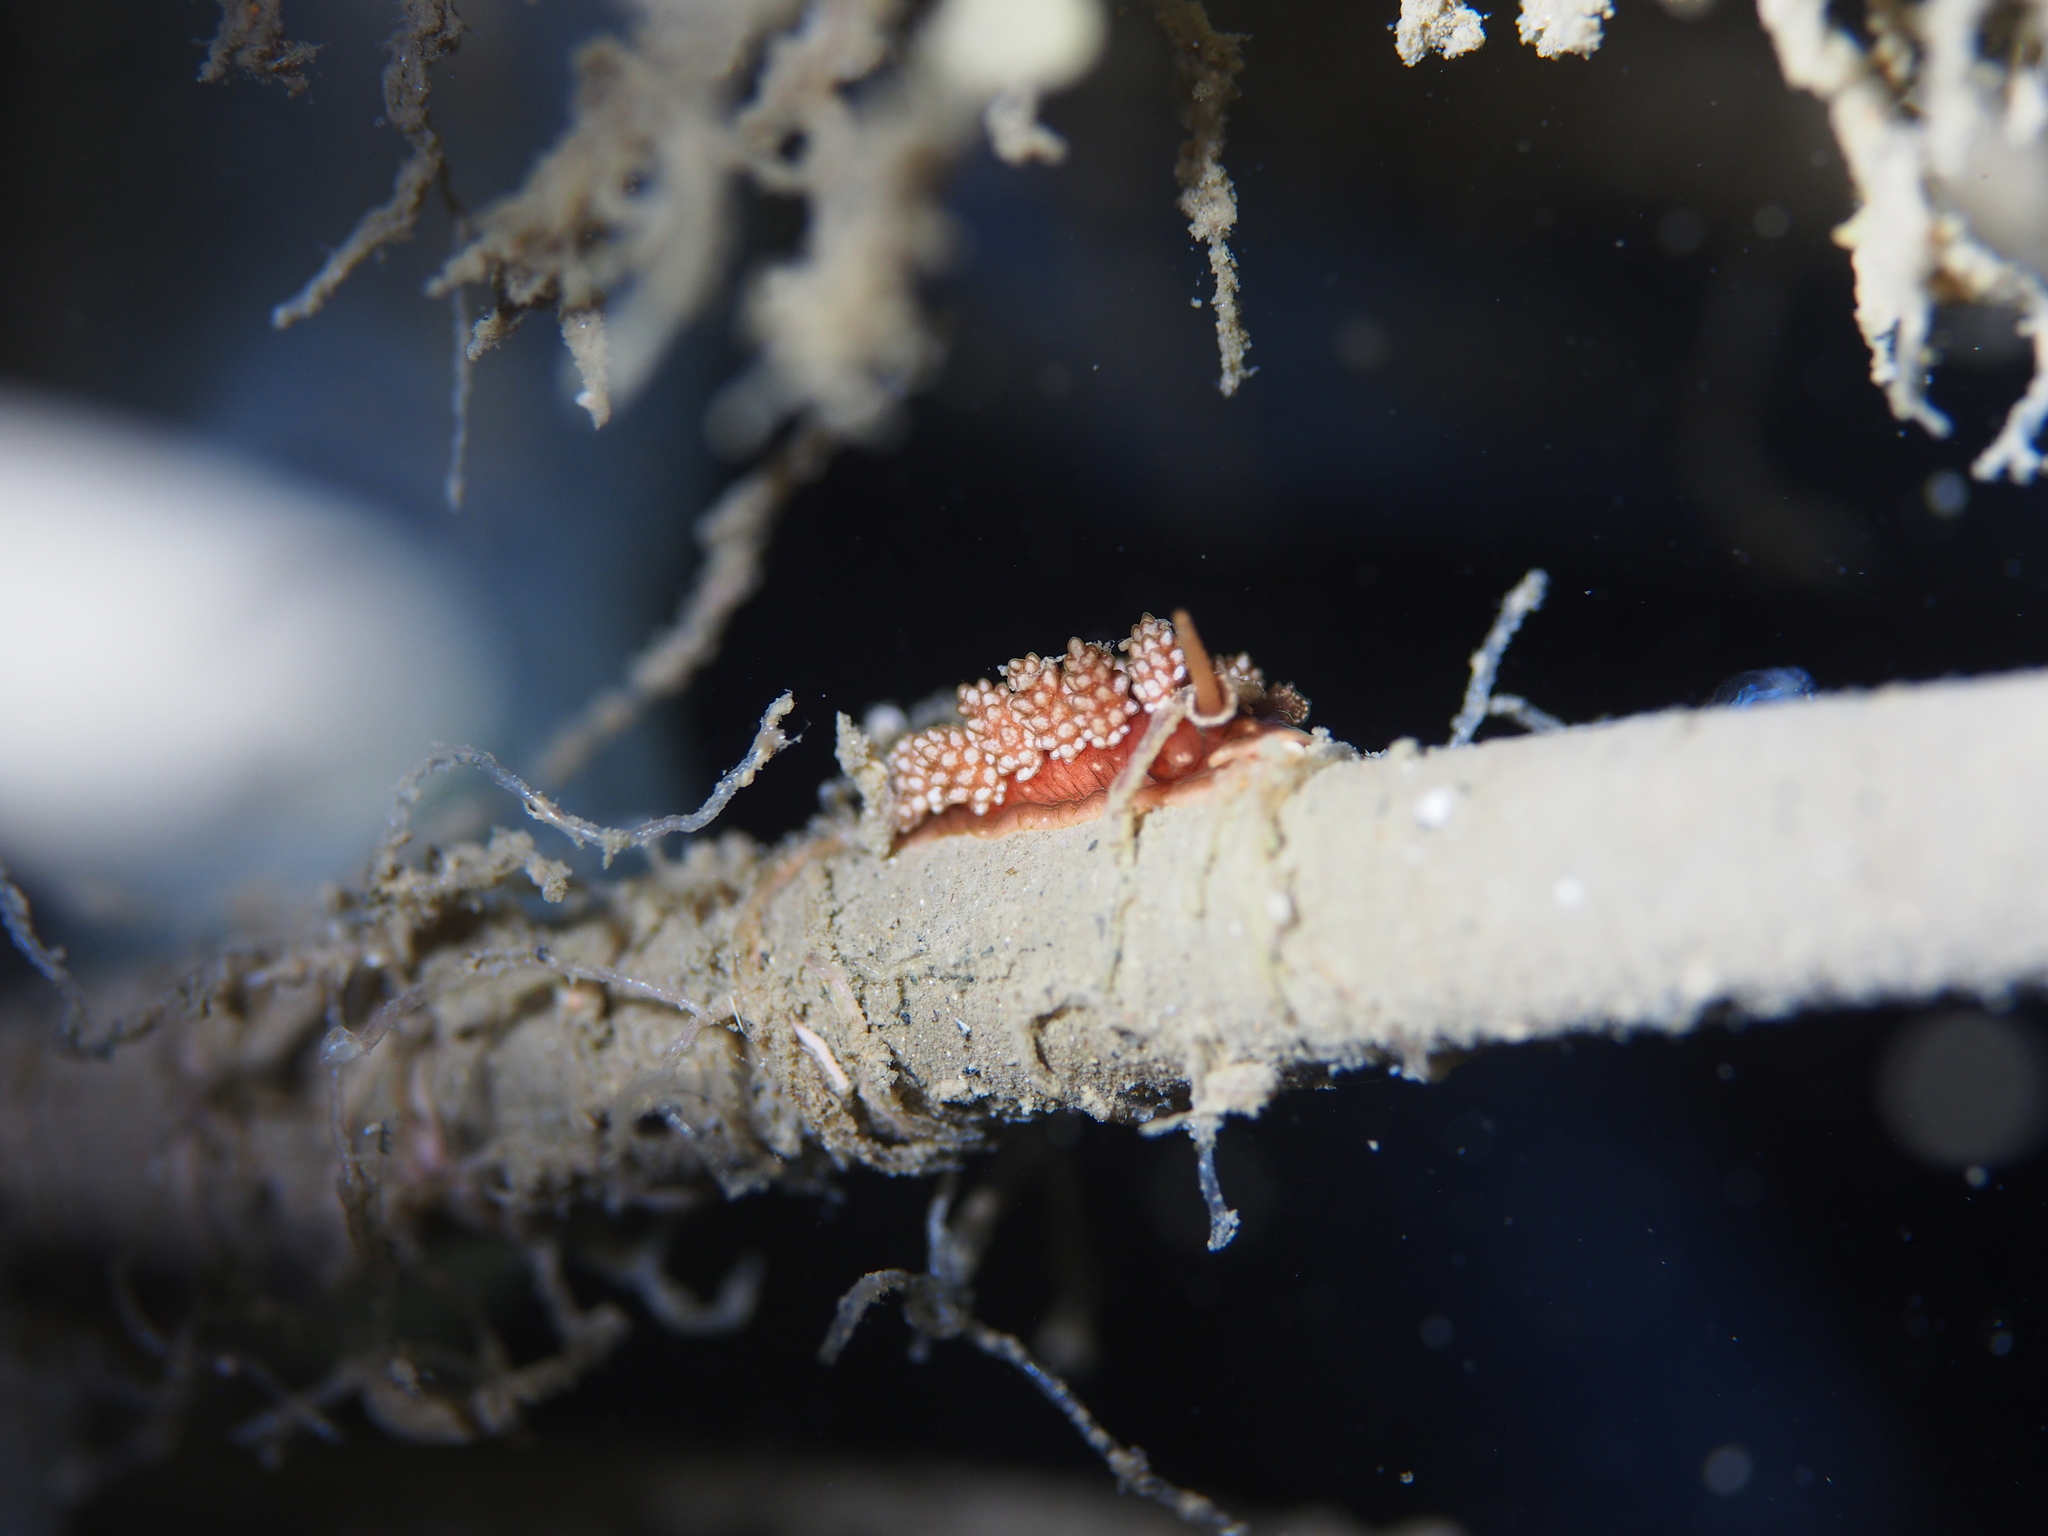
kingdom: Animalia
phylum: Mollusca
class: Gastropoda
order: Nudibranchia
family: Dotidae
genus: Doto
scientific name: Doto fragilis
